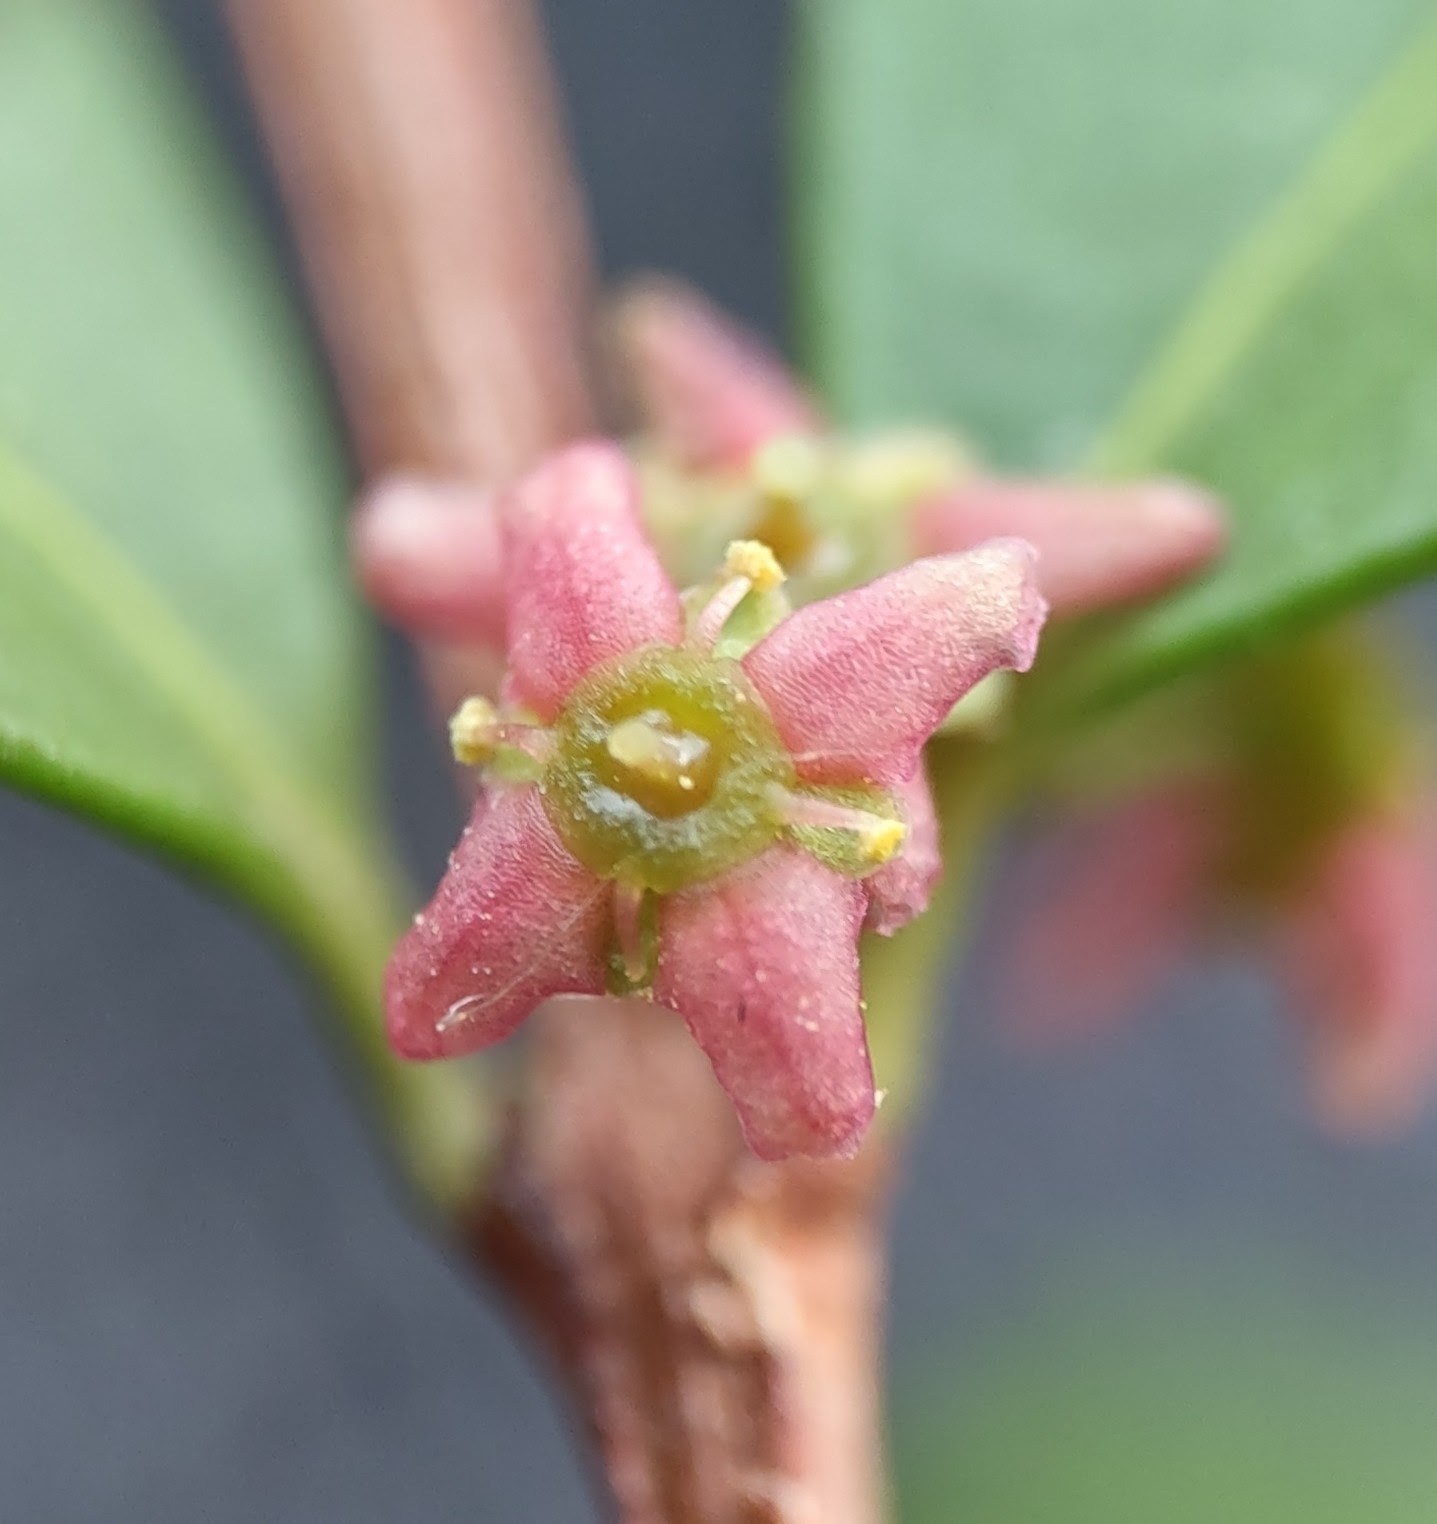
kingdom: Plantae
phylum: Tracheophyta
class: Magnoliopsida
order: Celastrales
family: Celastraceae
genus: Paxistima
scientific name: Paxistima myrsinites
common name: Mountain-lover
